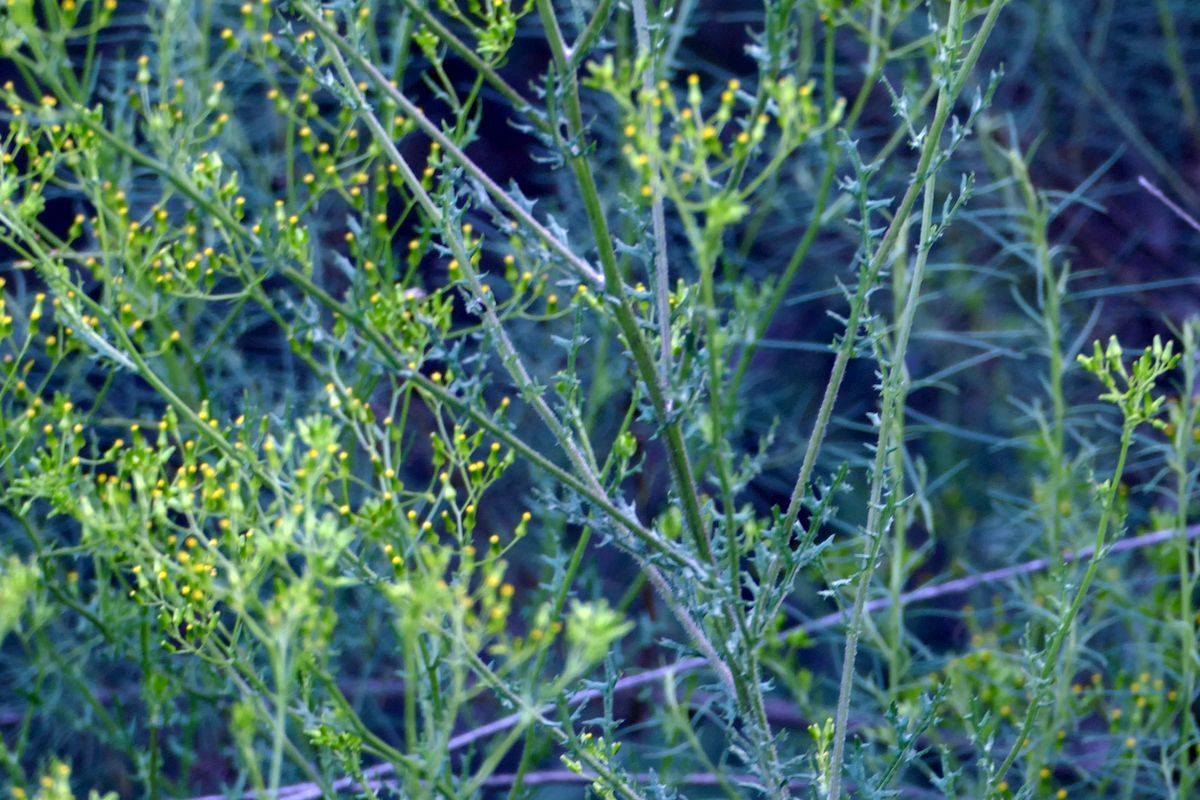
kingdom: Plantae
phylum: Tracheophyta
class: Magnoliopsida
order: Asterales
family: Asteraceae
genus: Senecio
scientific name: Senecio bathurstianus
